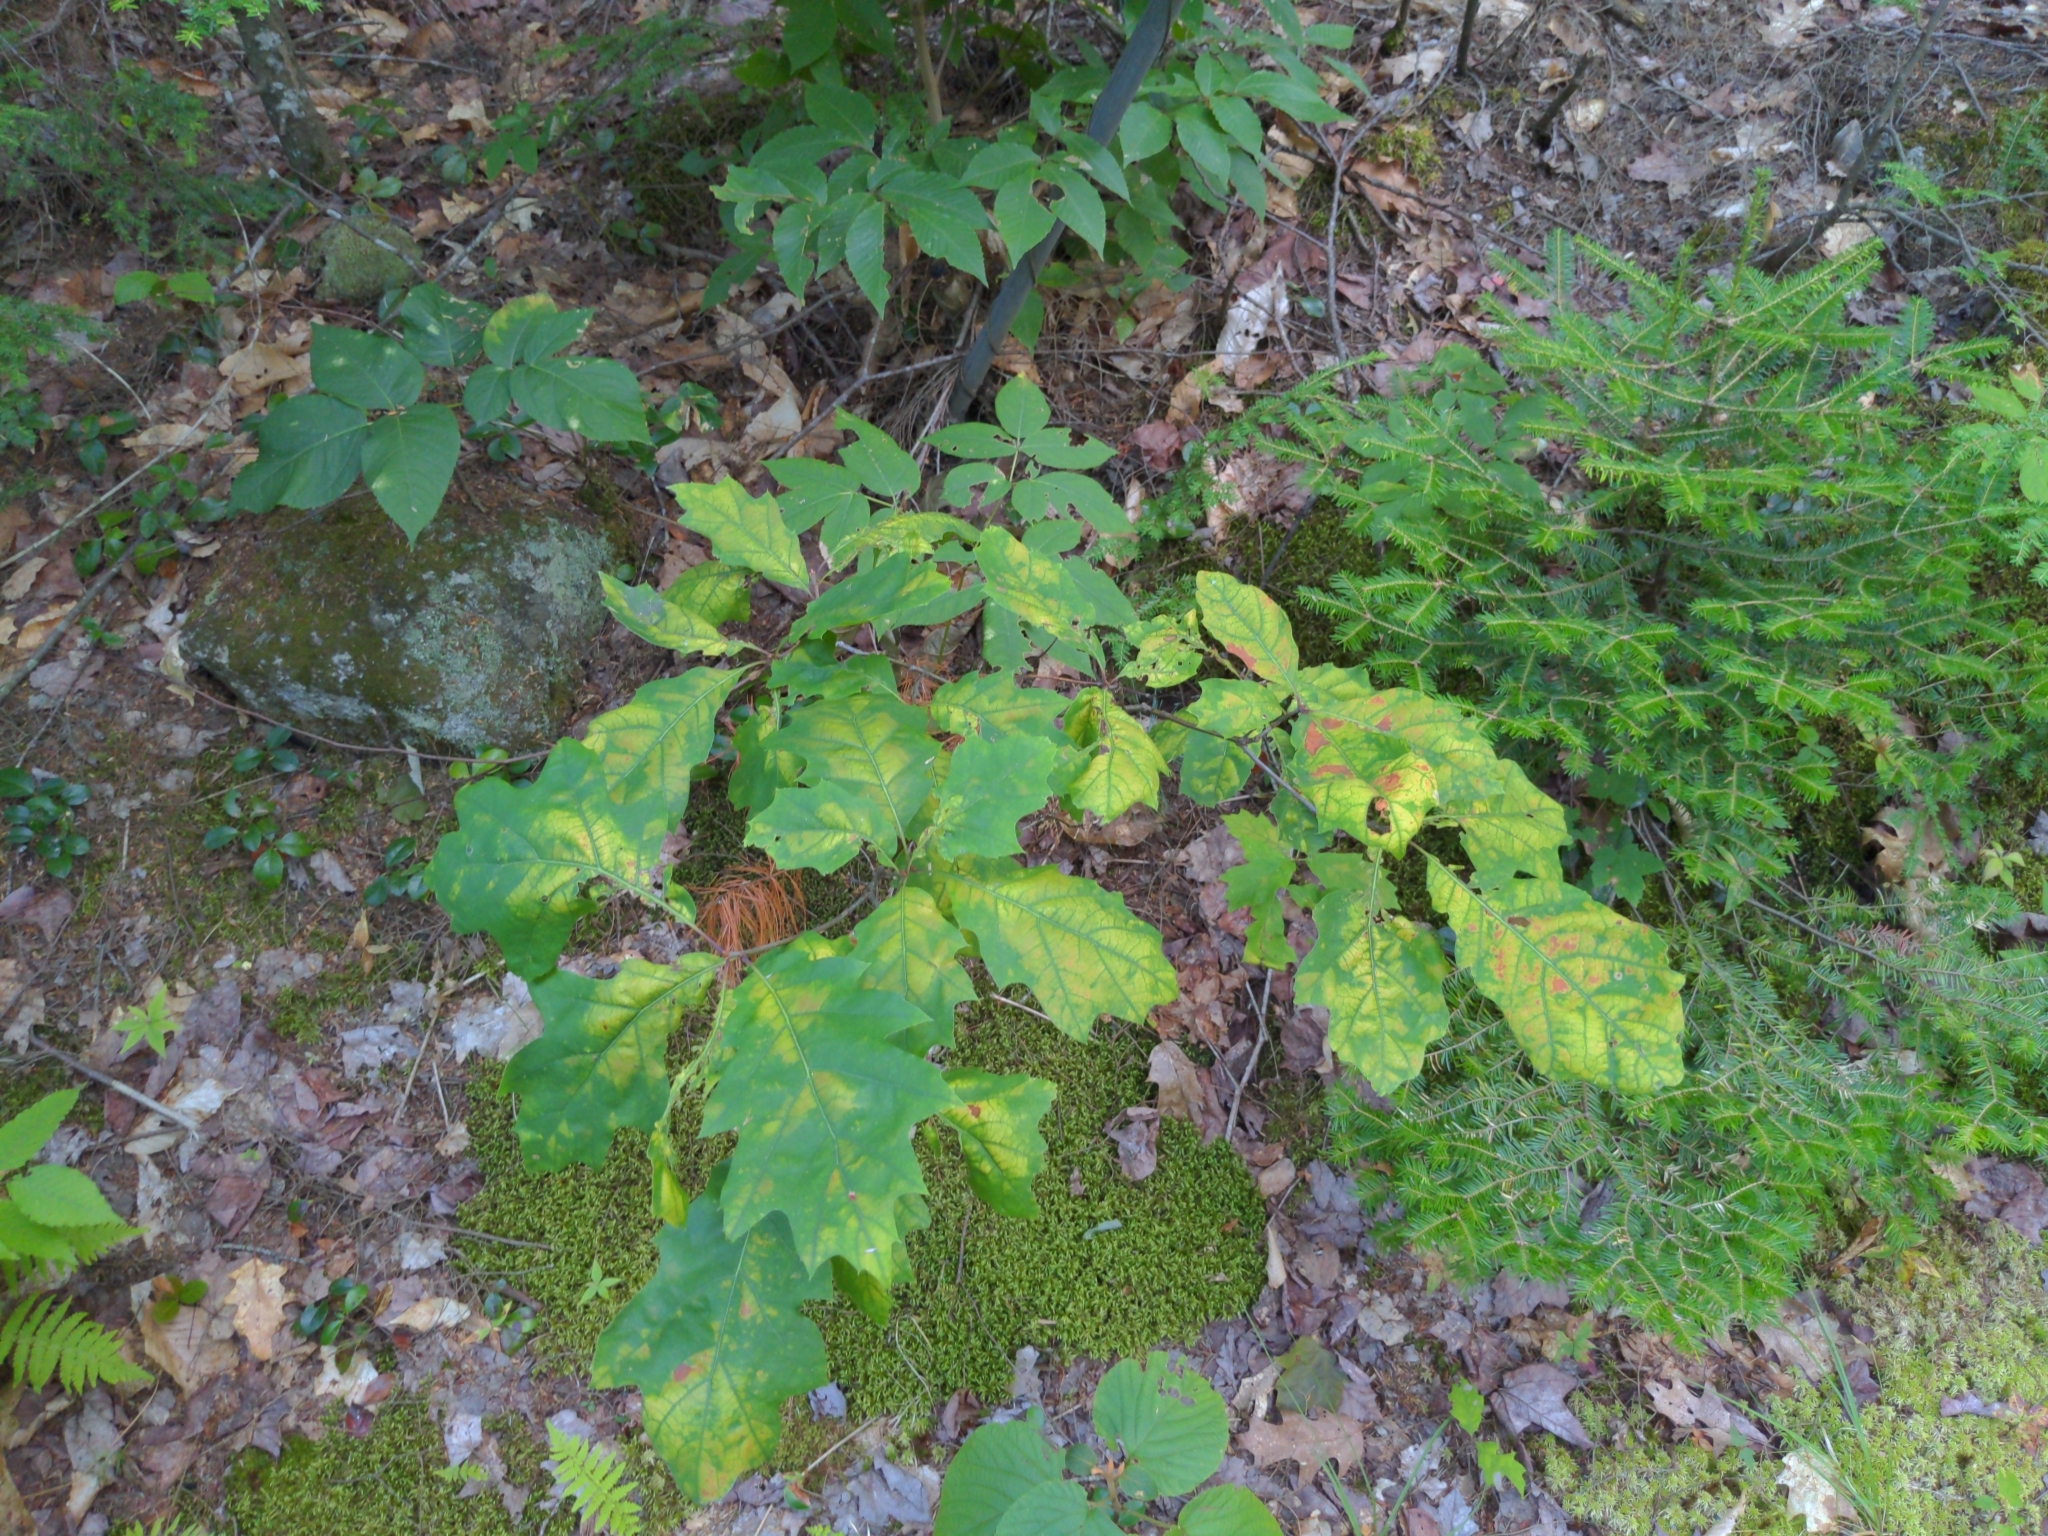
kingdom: Plantae
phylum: Tracheophyta
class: Magnoliopsida
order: Fagales
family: Fagaceae
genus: Quercus
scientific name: Quercus rubra
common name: Red oak
